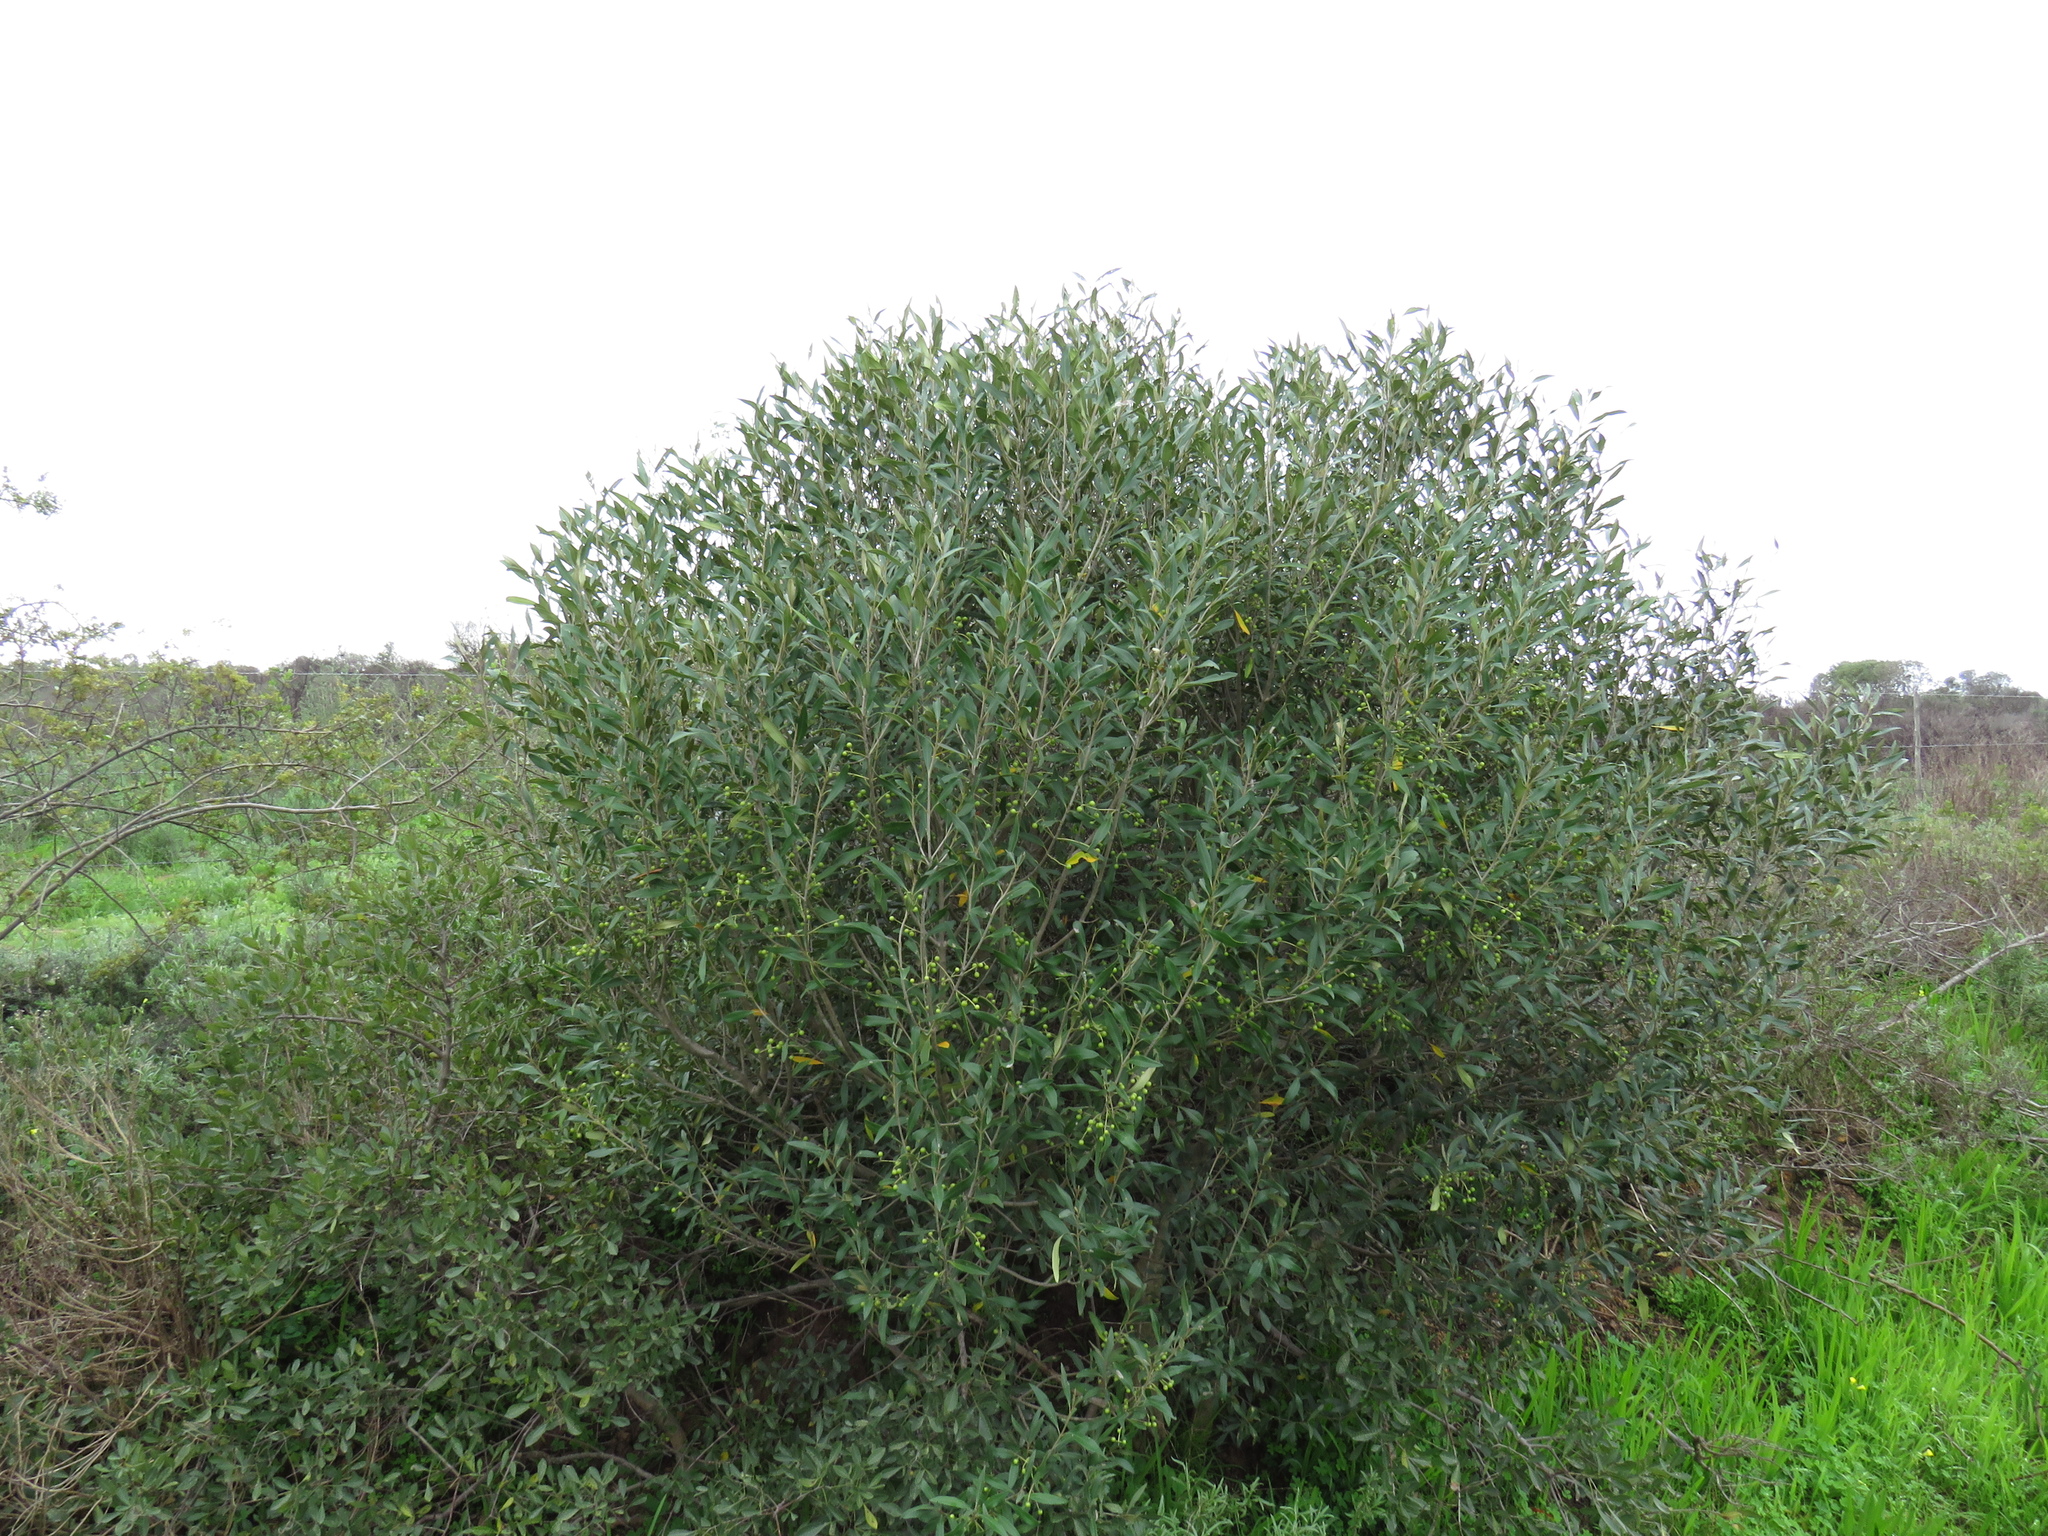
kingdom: Plantae
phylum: Tracheophyta
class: Magnoliopsida
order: Lamiales
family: Oleaceae
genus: Olea
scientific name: Olea europaea
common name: Olive
